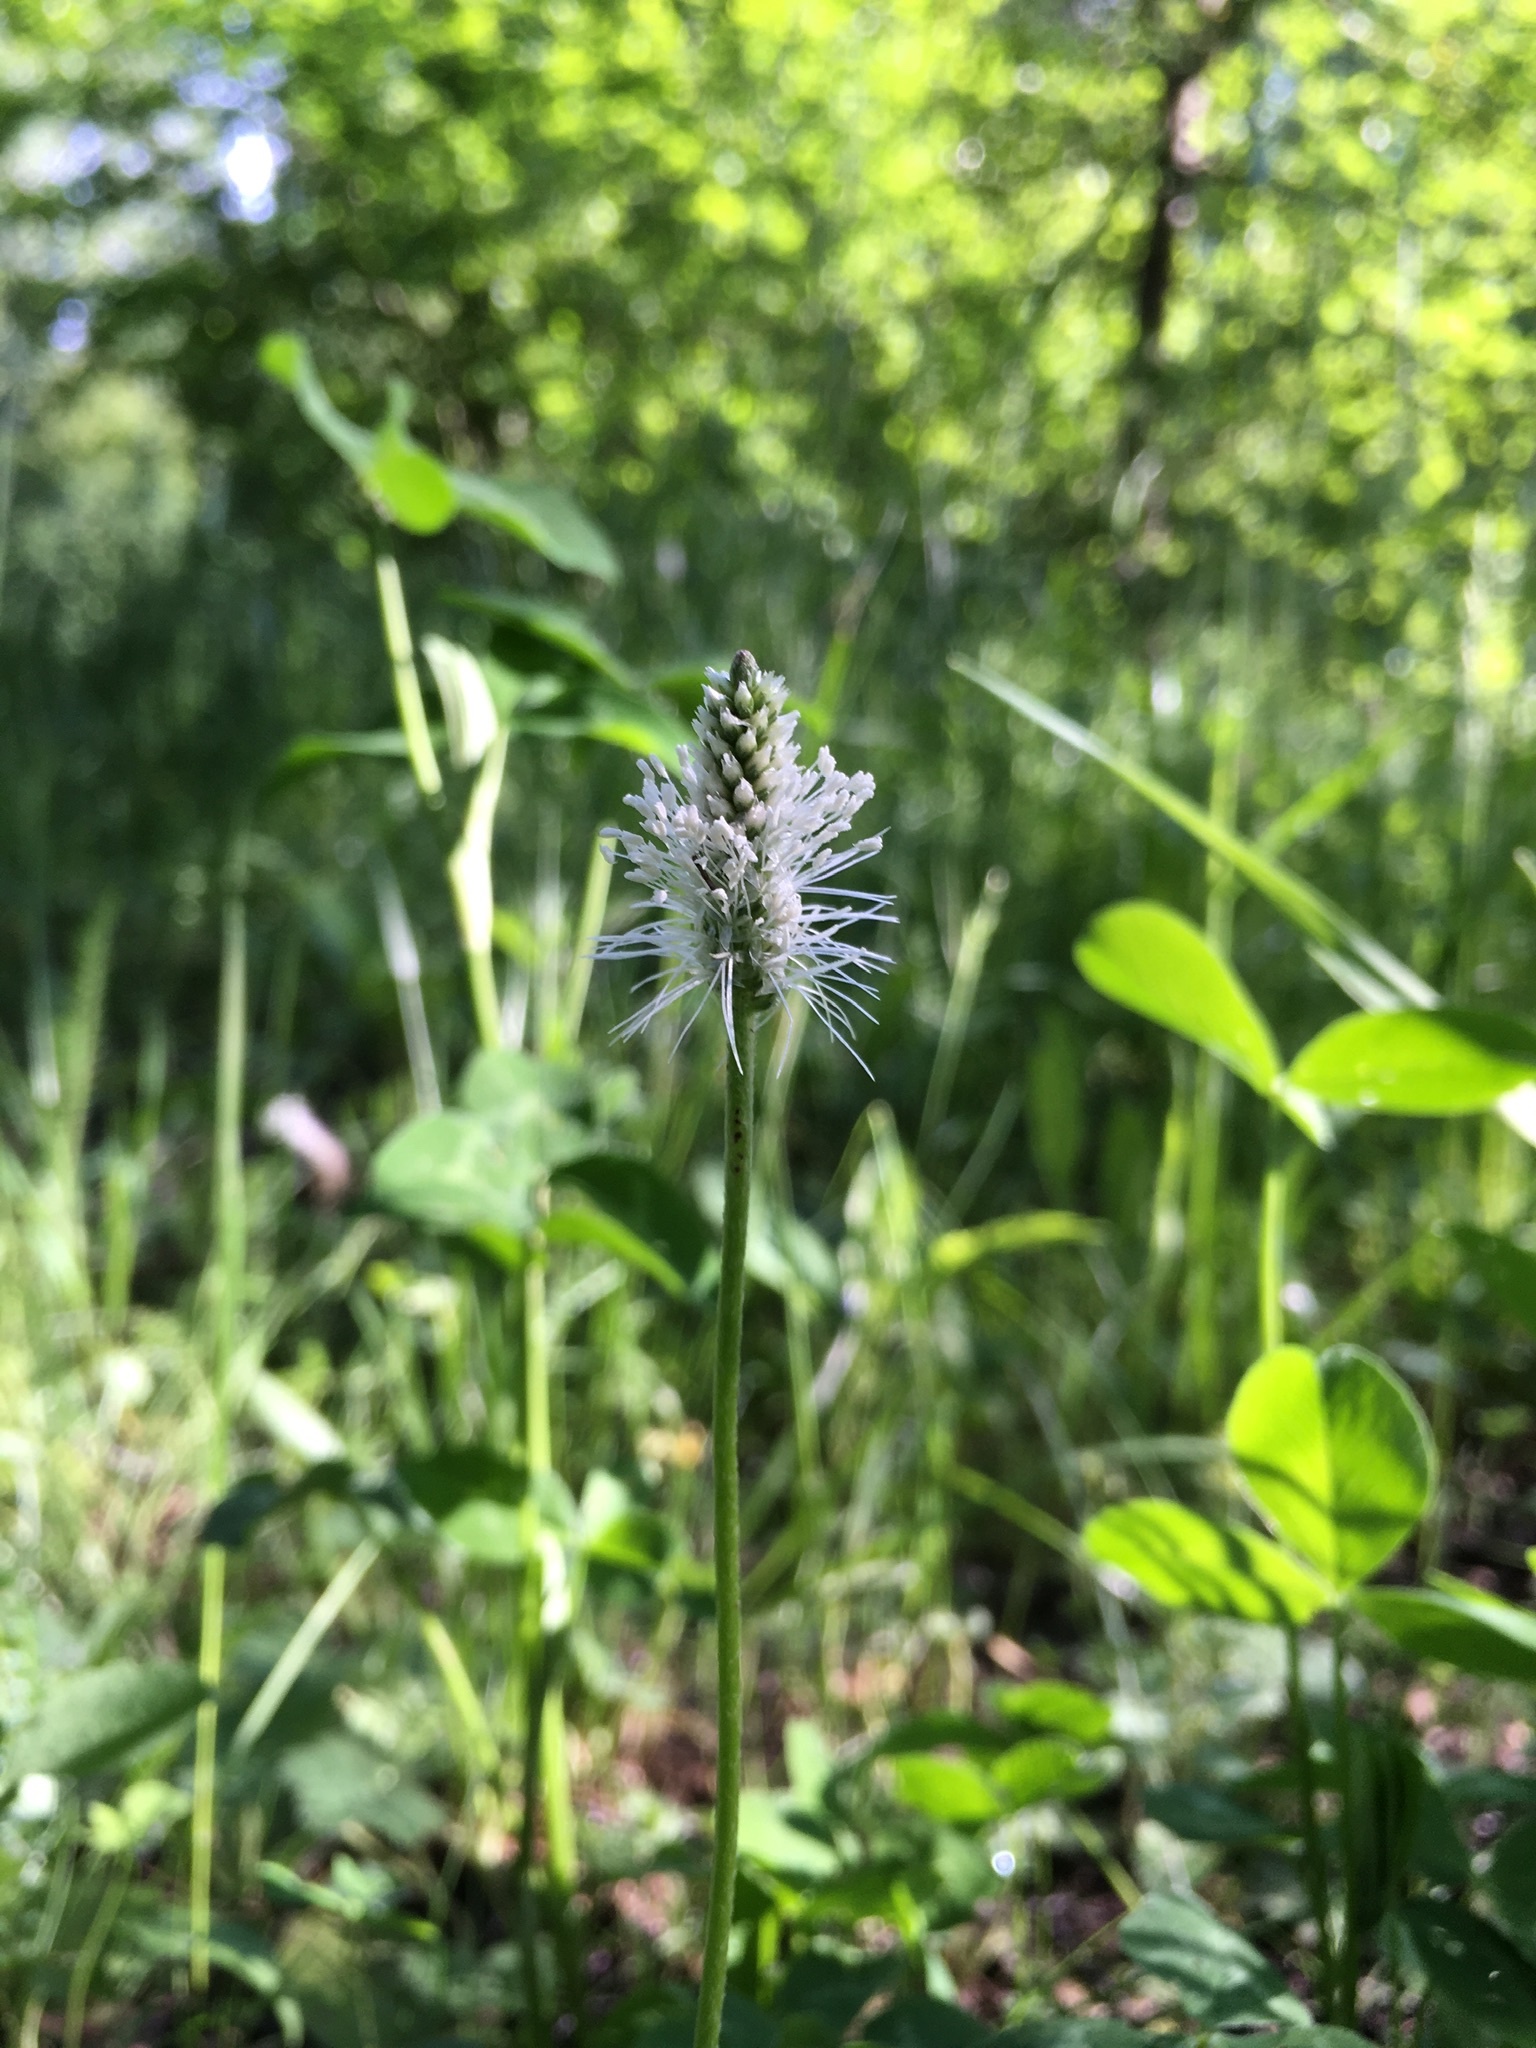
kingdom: Plantae
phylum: Tracheophyta
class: Magnoliopsida
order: Lamiales
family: Plantaginaceae
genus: Plantago
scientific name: Plantago media
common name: Hoary plantain
